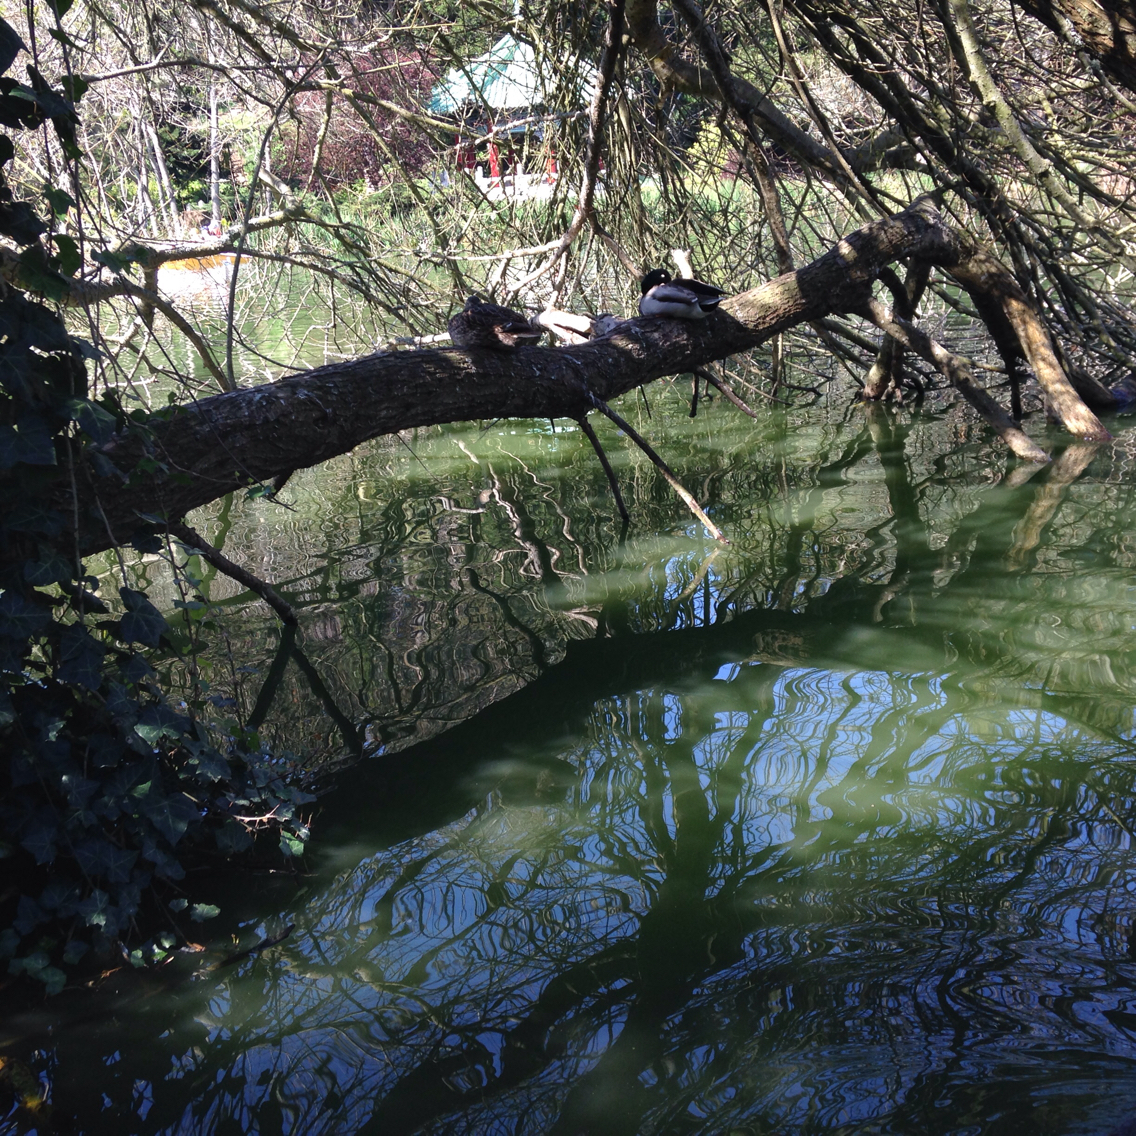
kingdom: Animalia
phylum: Chordata
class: Aves
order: Anseriformes
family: Anatidae
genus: Anas
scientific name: Anas platyrhynchos
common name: Mallard
